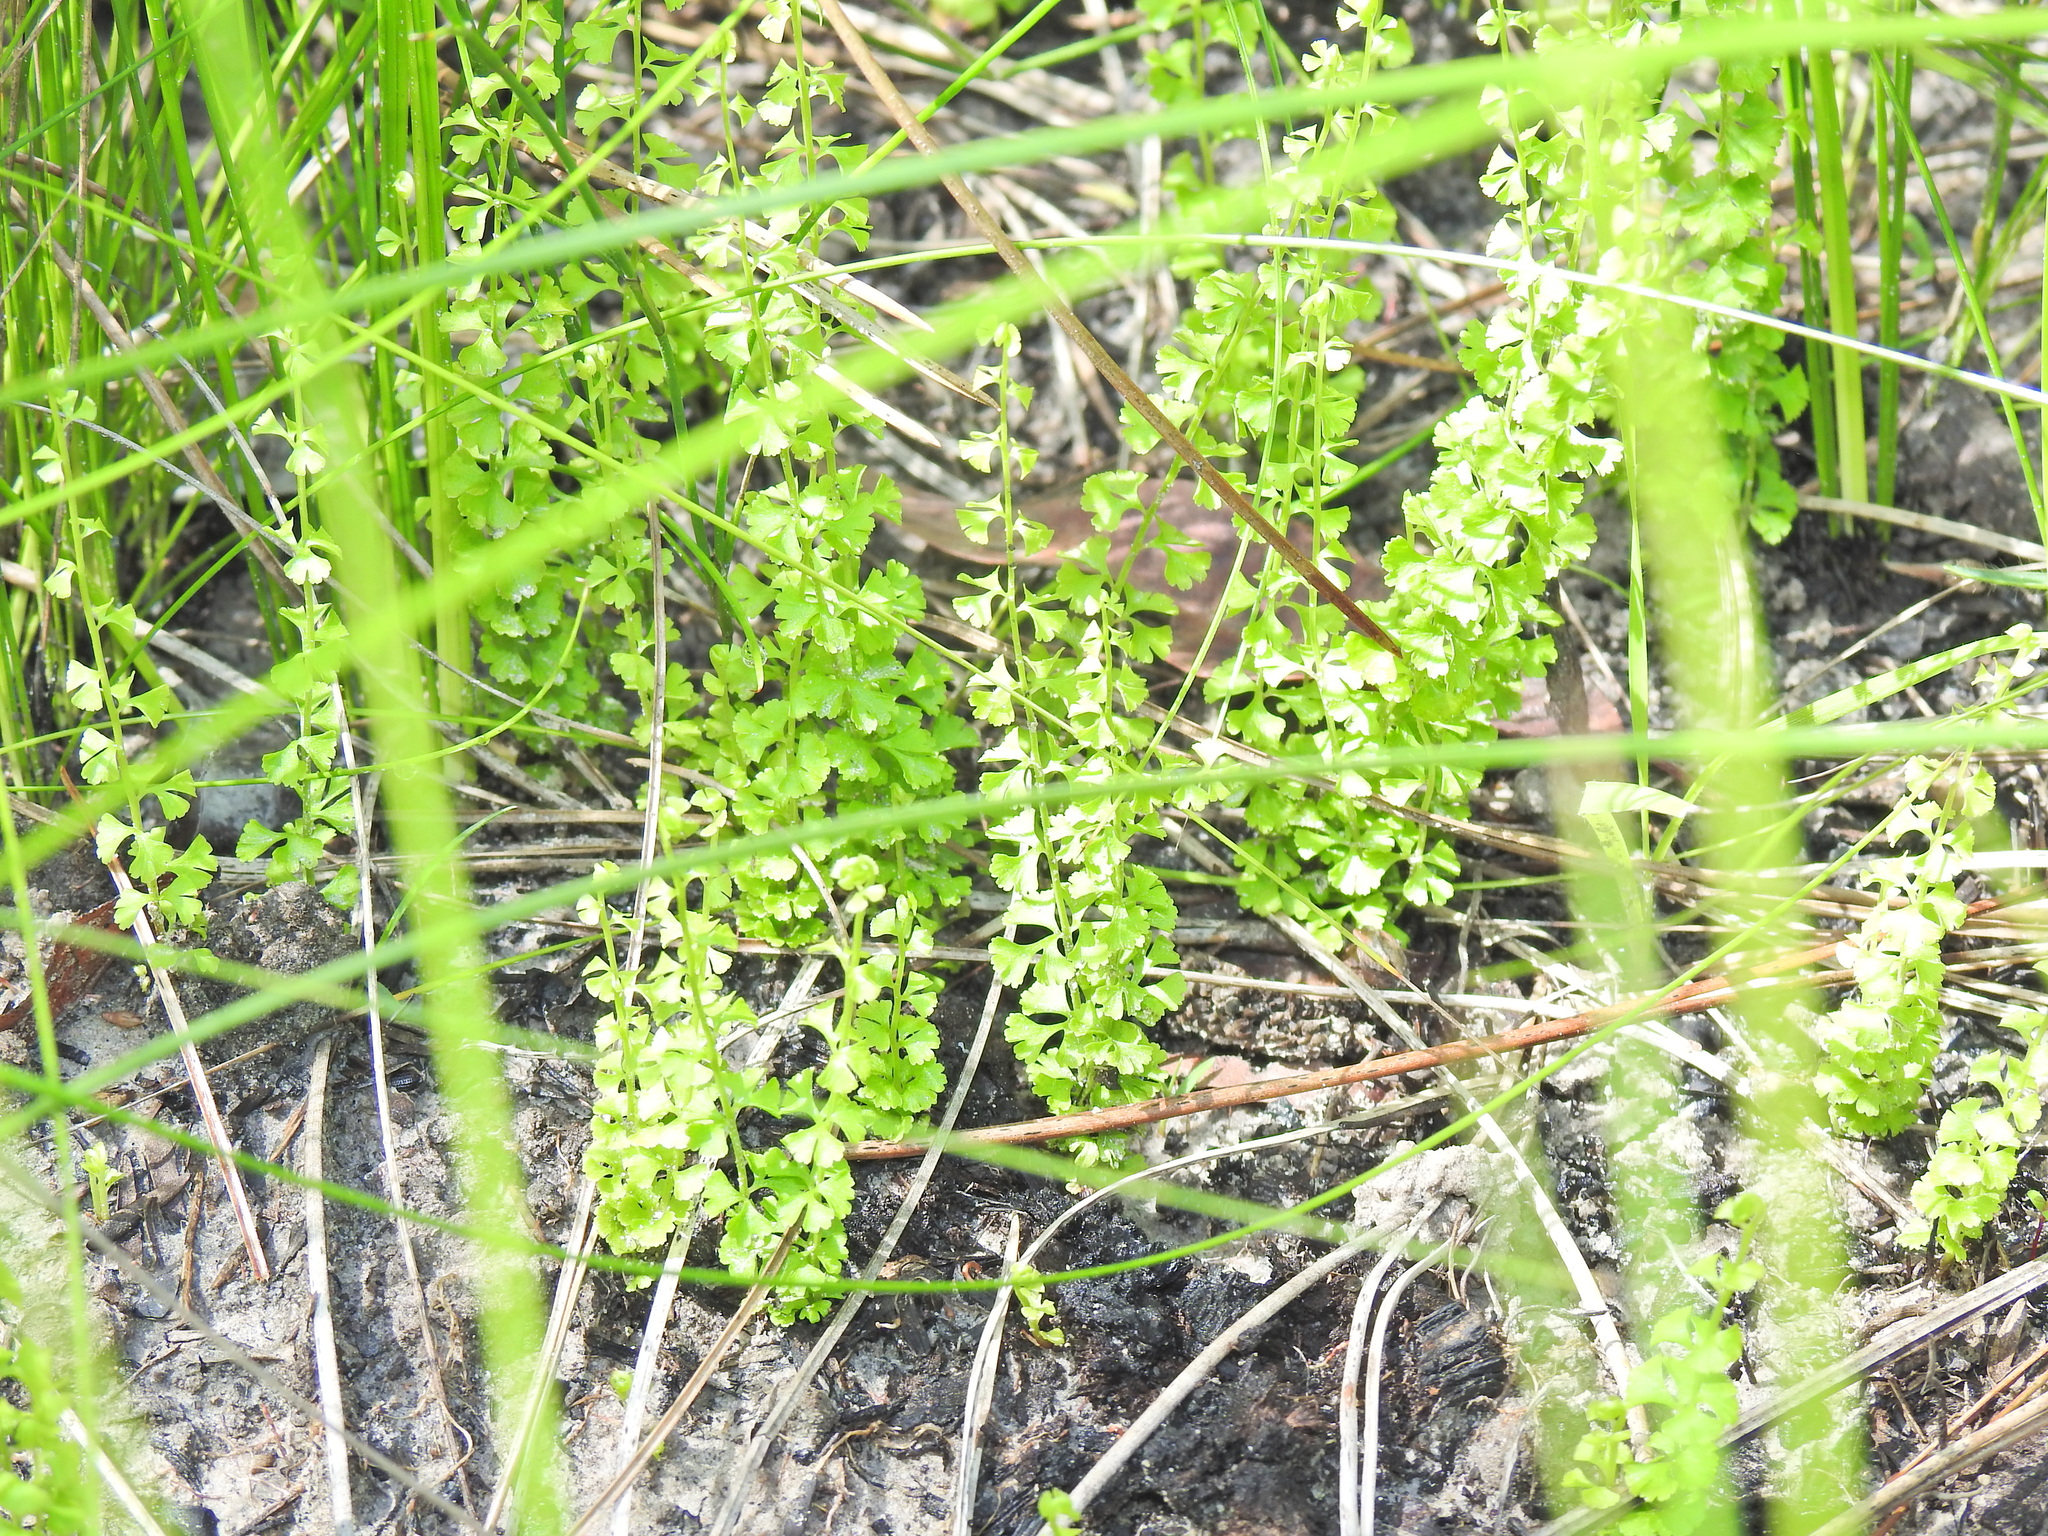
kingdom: Plantae
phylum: Tracheophyta
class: Polypodiopsida
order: Polypodiales
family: Lindsaeaceae
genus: Lindsaea
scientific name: Lindsaea incisa
